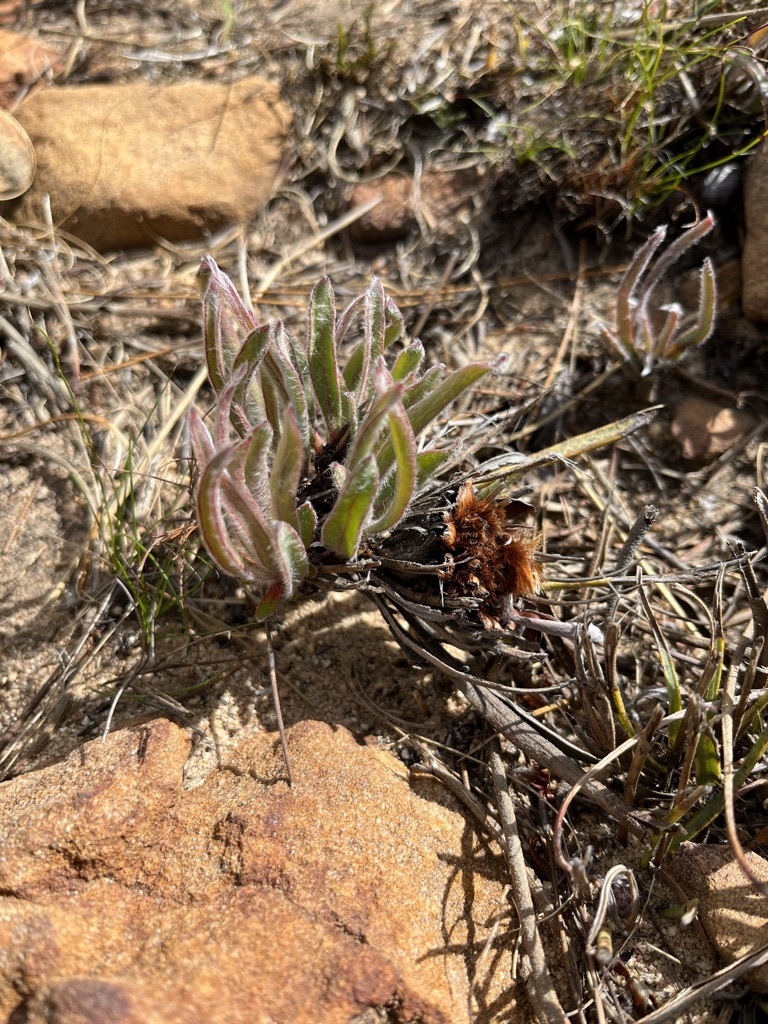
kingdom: Plantae
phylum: Tracheophyta
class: Magnoliopsida
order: Proteales
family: Proteaceae
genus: Protea
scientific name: Protea piscina
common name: Visgat sugarbush
